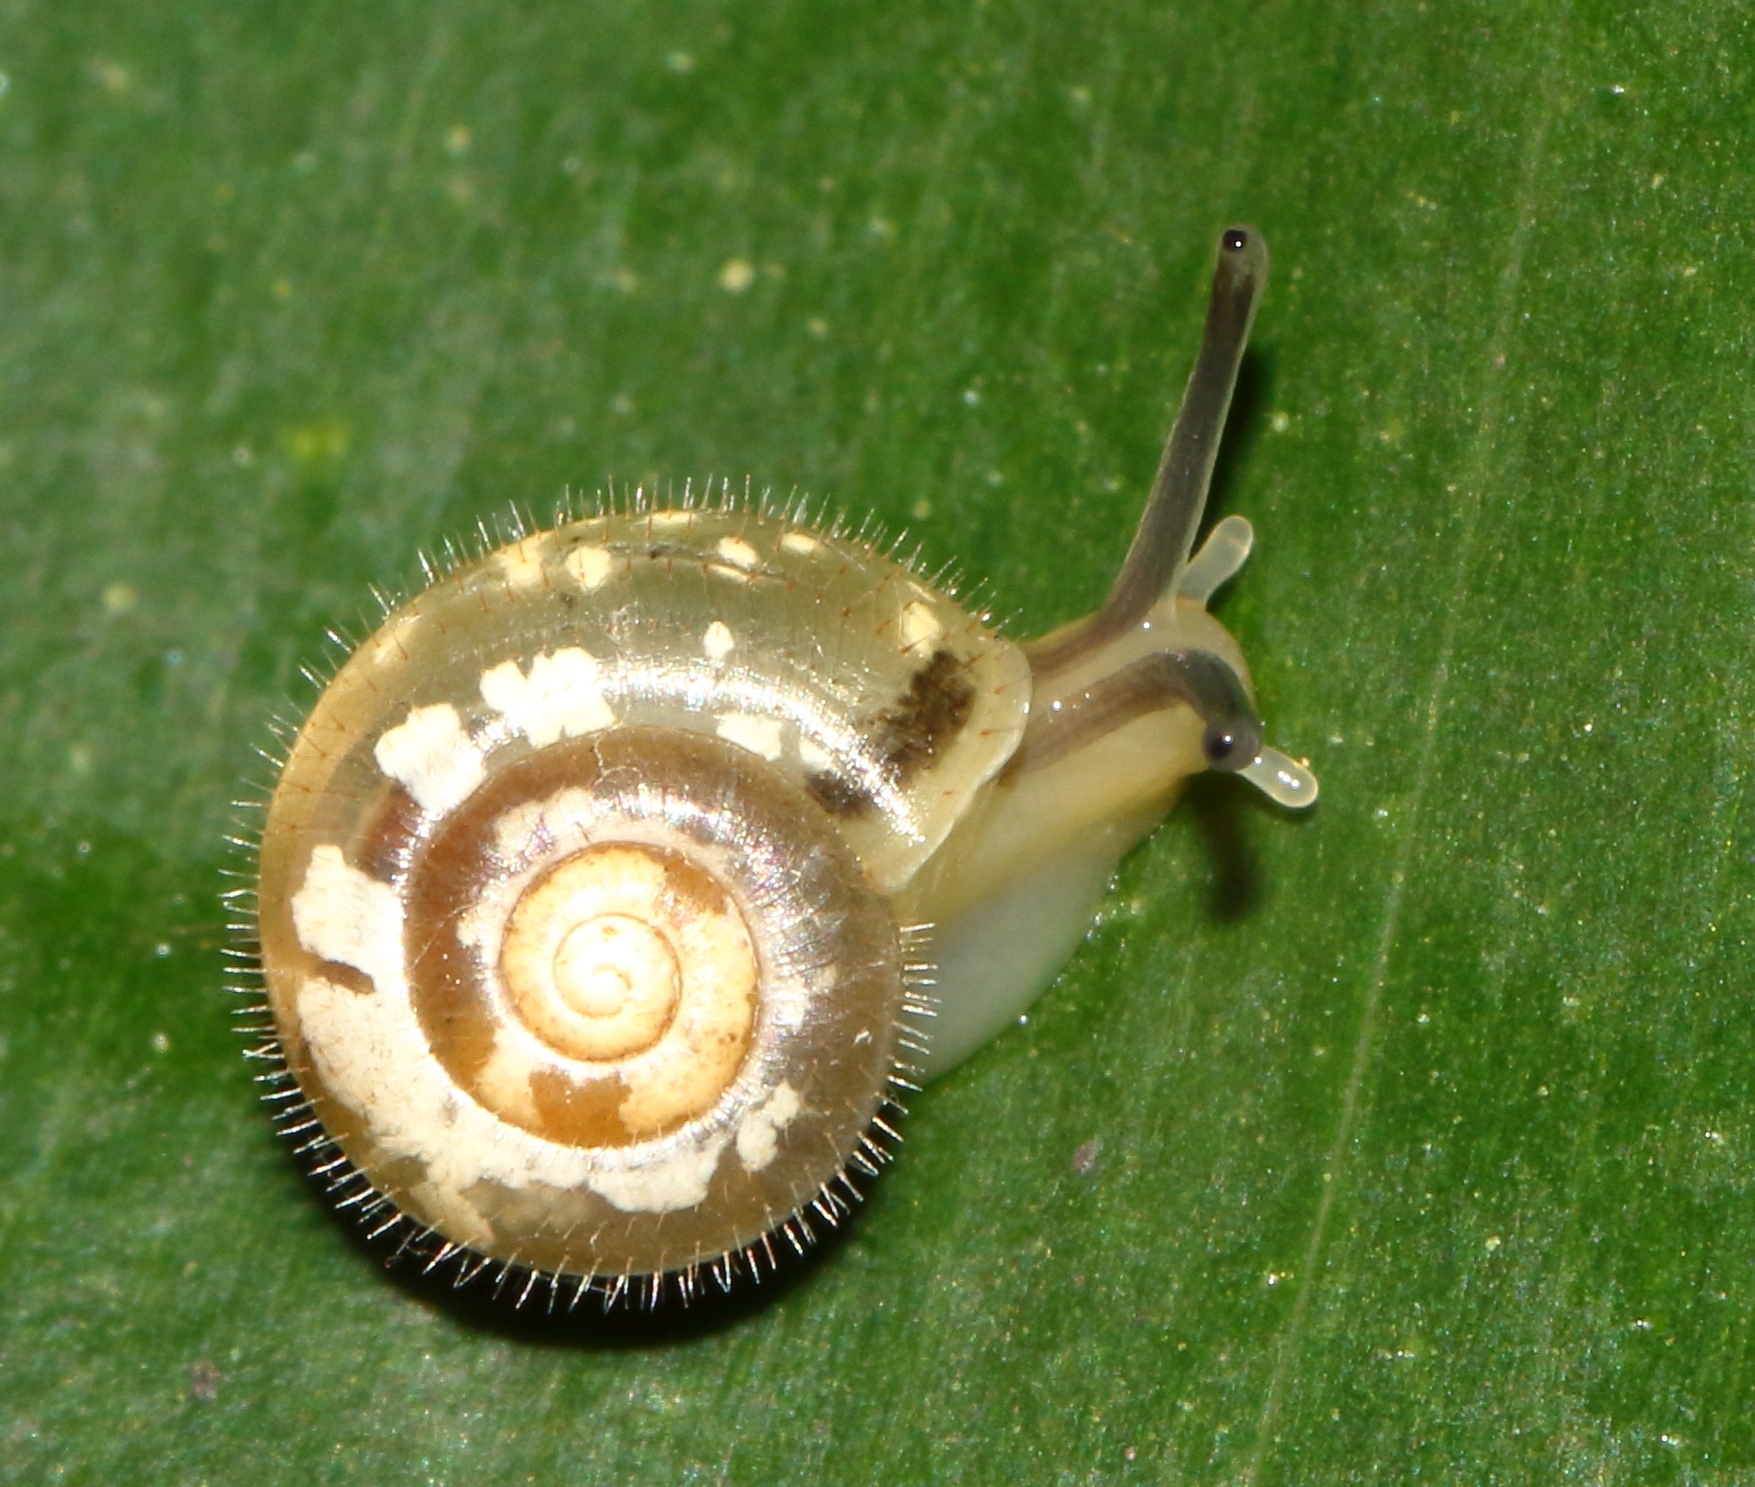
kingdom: Animalia
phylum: Mollusca
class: Gastropoda
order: Stylommatophora
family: Charopidae
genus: Chilocystis
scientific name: Chilocystis conisalea
